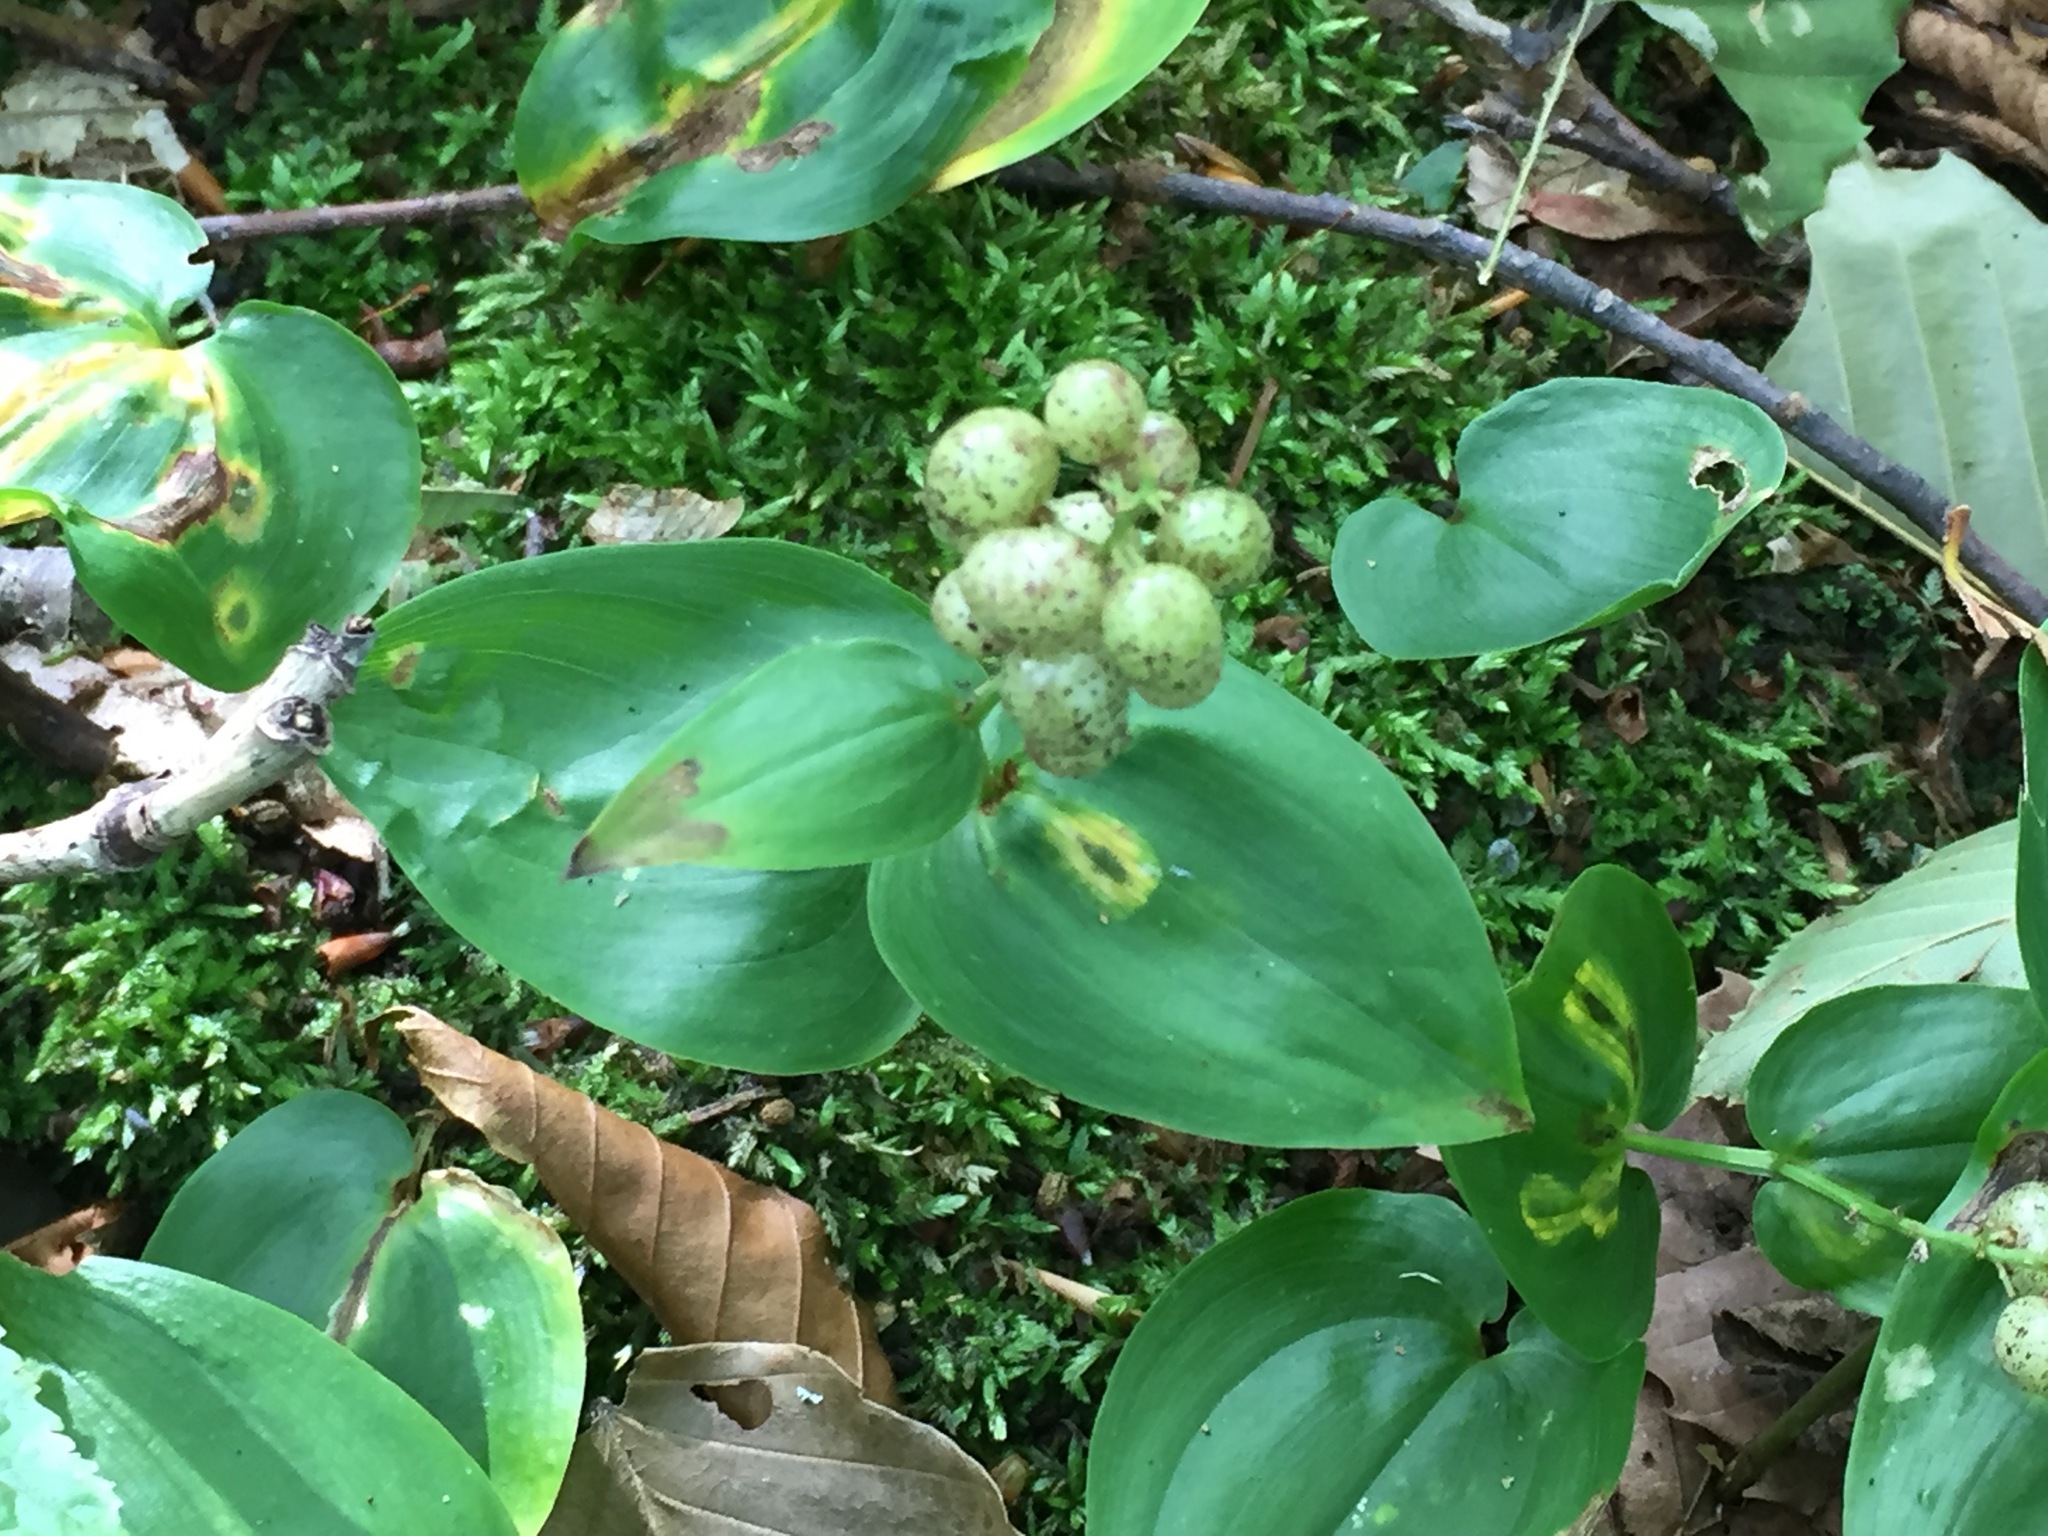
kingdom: Plantae
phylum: Tracheophyta
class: Liliopsida
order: Asparagales
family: Asparagaceae
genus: Maianthemum
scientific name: Maianthemum canadense
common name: False lily-of-the-valley
